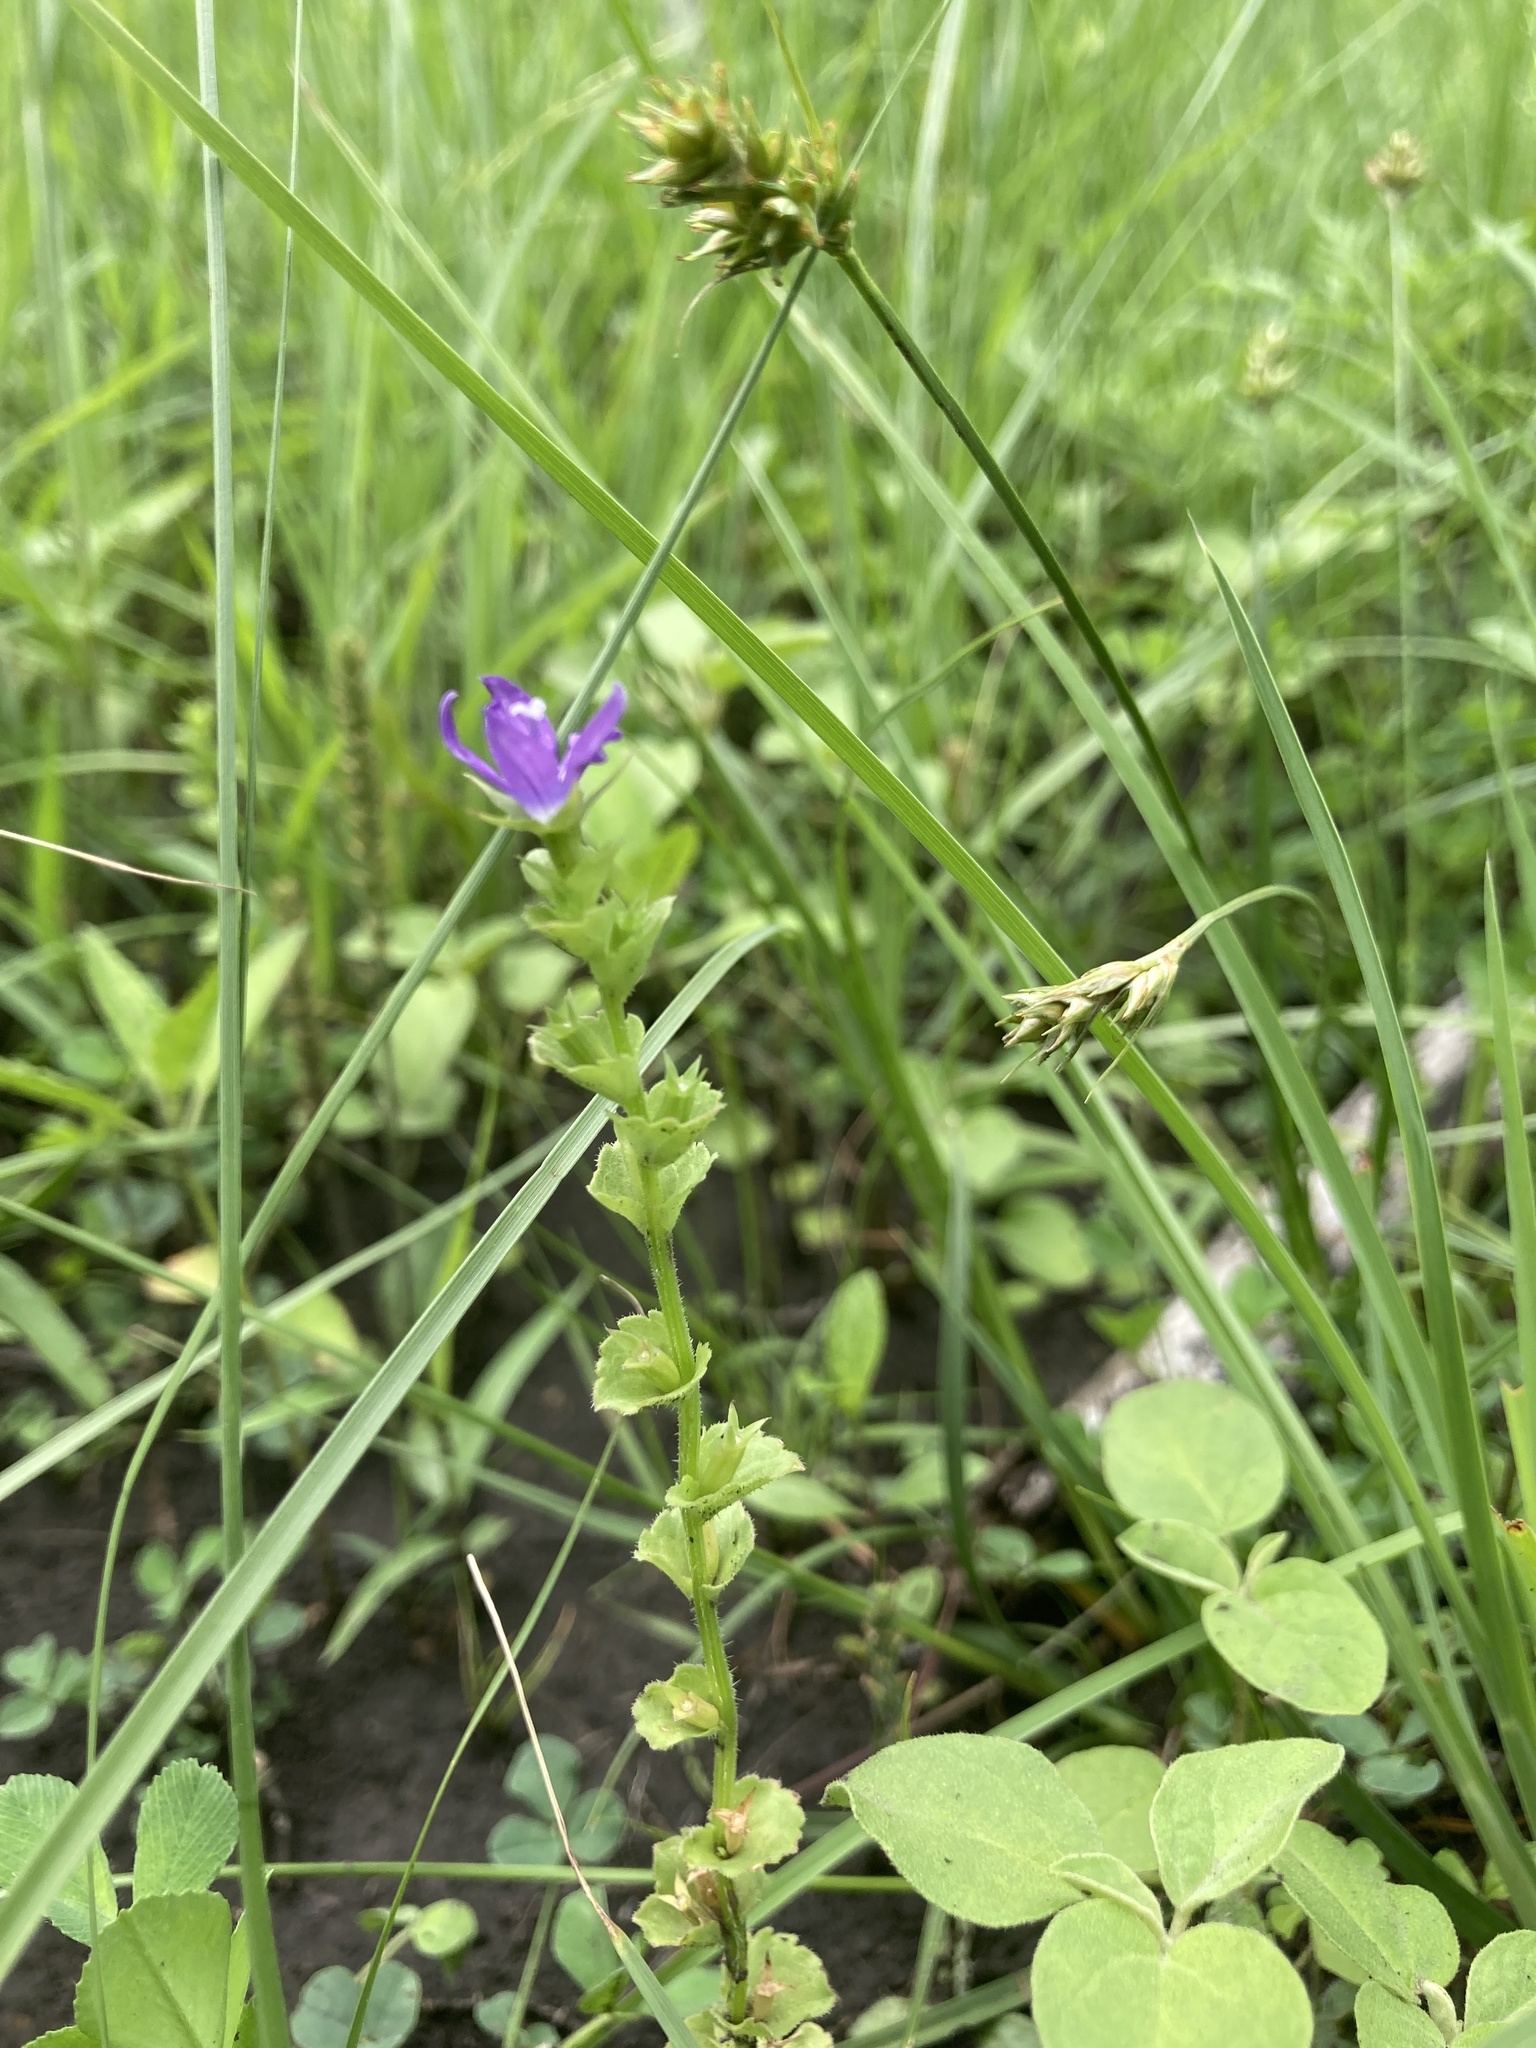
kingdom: Plantae
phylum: Tracheophyta
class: Magnoliopsida
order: Asterales
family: Campanulaceae
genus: Triodanis
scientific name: Triodanis perfoliata
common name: Clasping venus' looking-glass
